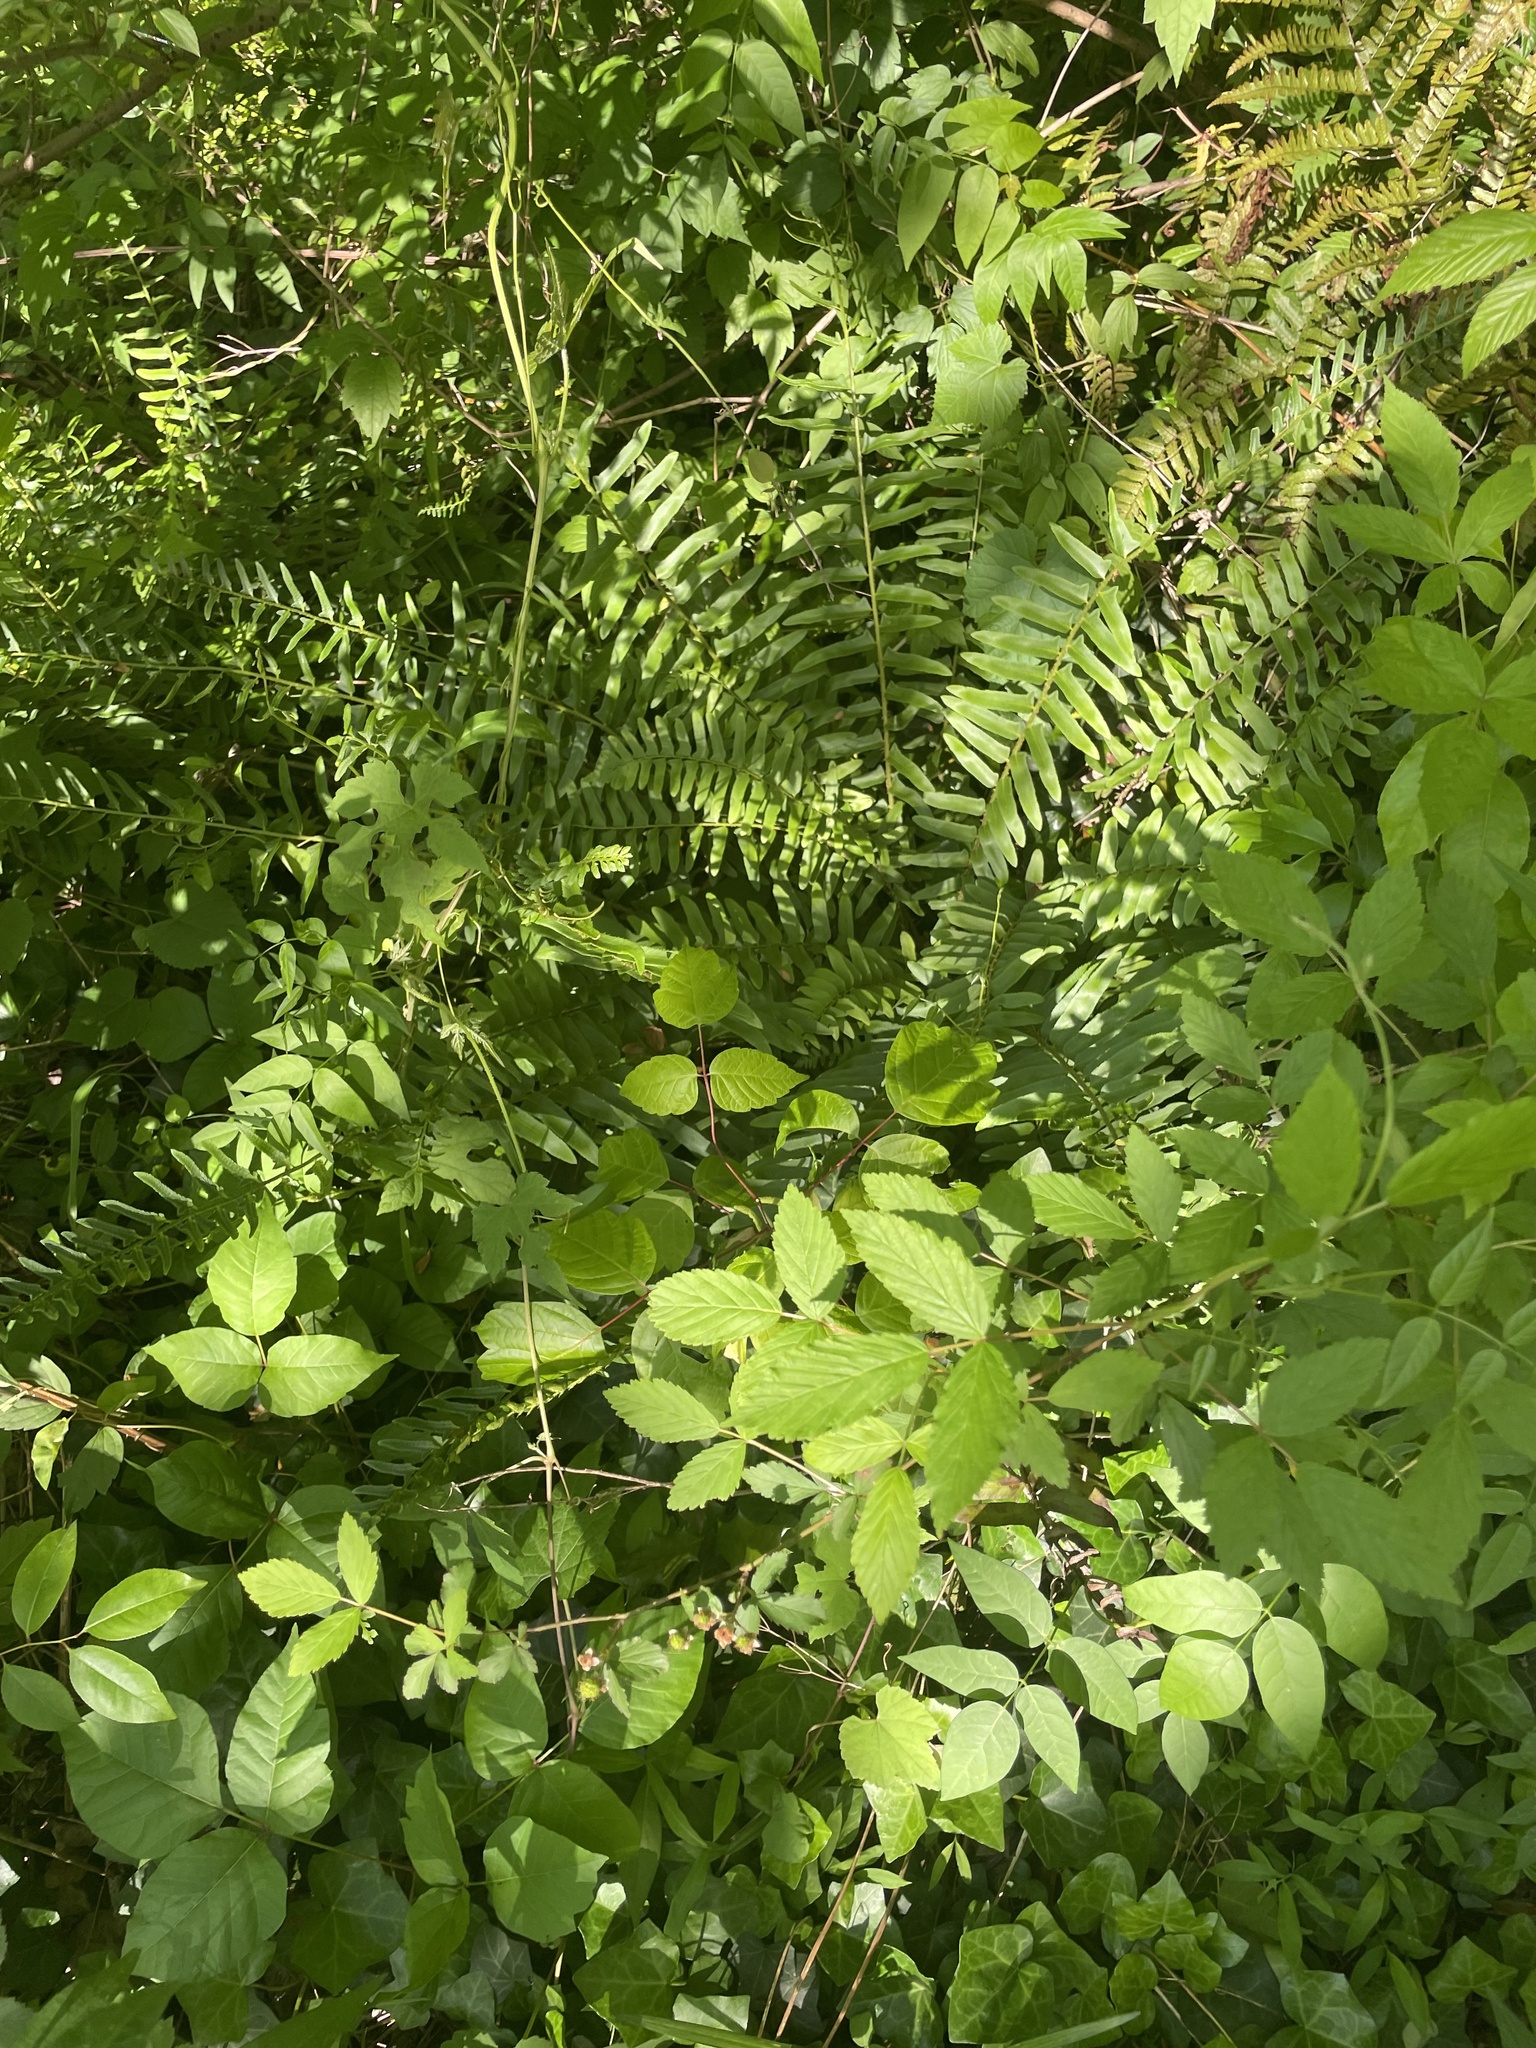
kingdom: Plantae
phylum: Tracheophyta
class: Polypodiopsida
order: Polypodiales
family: Dryopteridaceae
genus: Polystichum
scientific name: Polystichum acrostichoides
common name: Christmas fern
